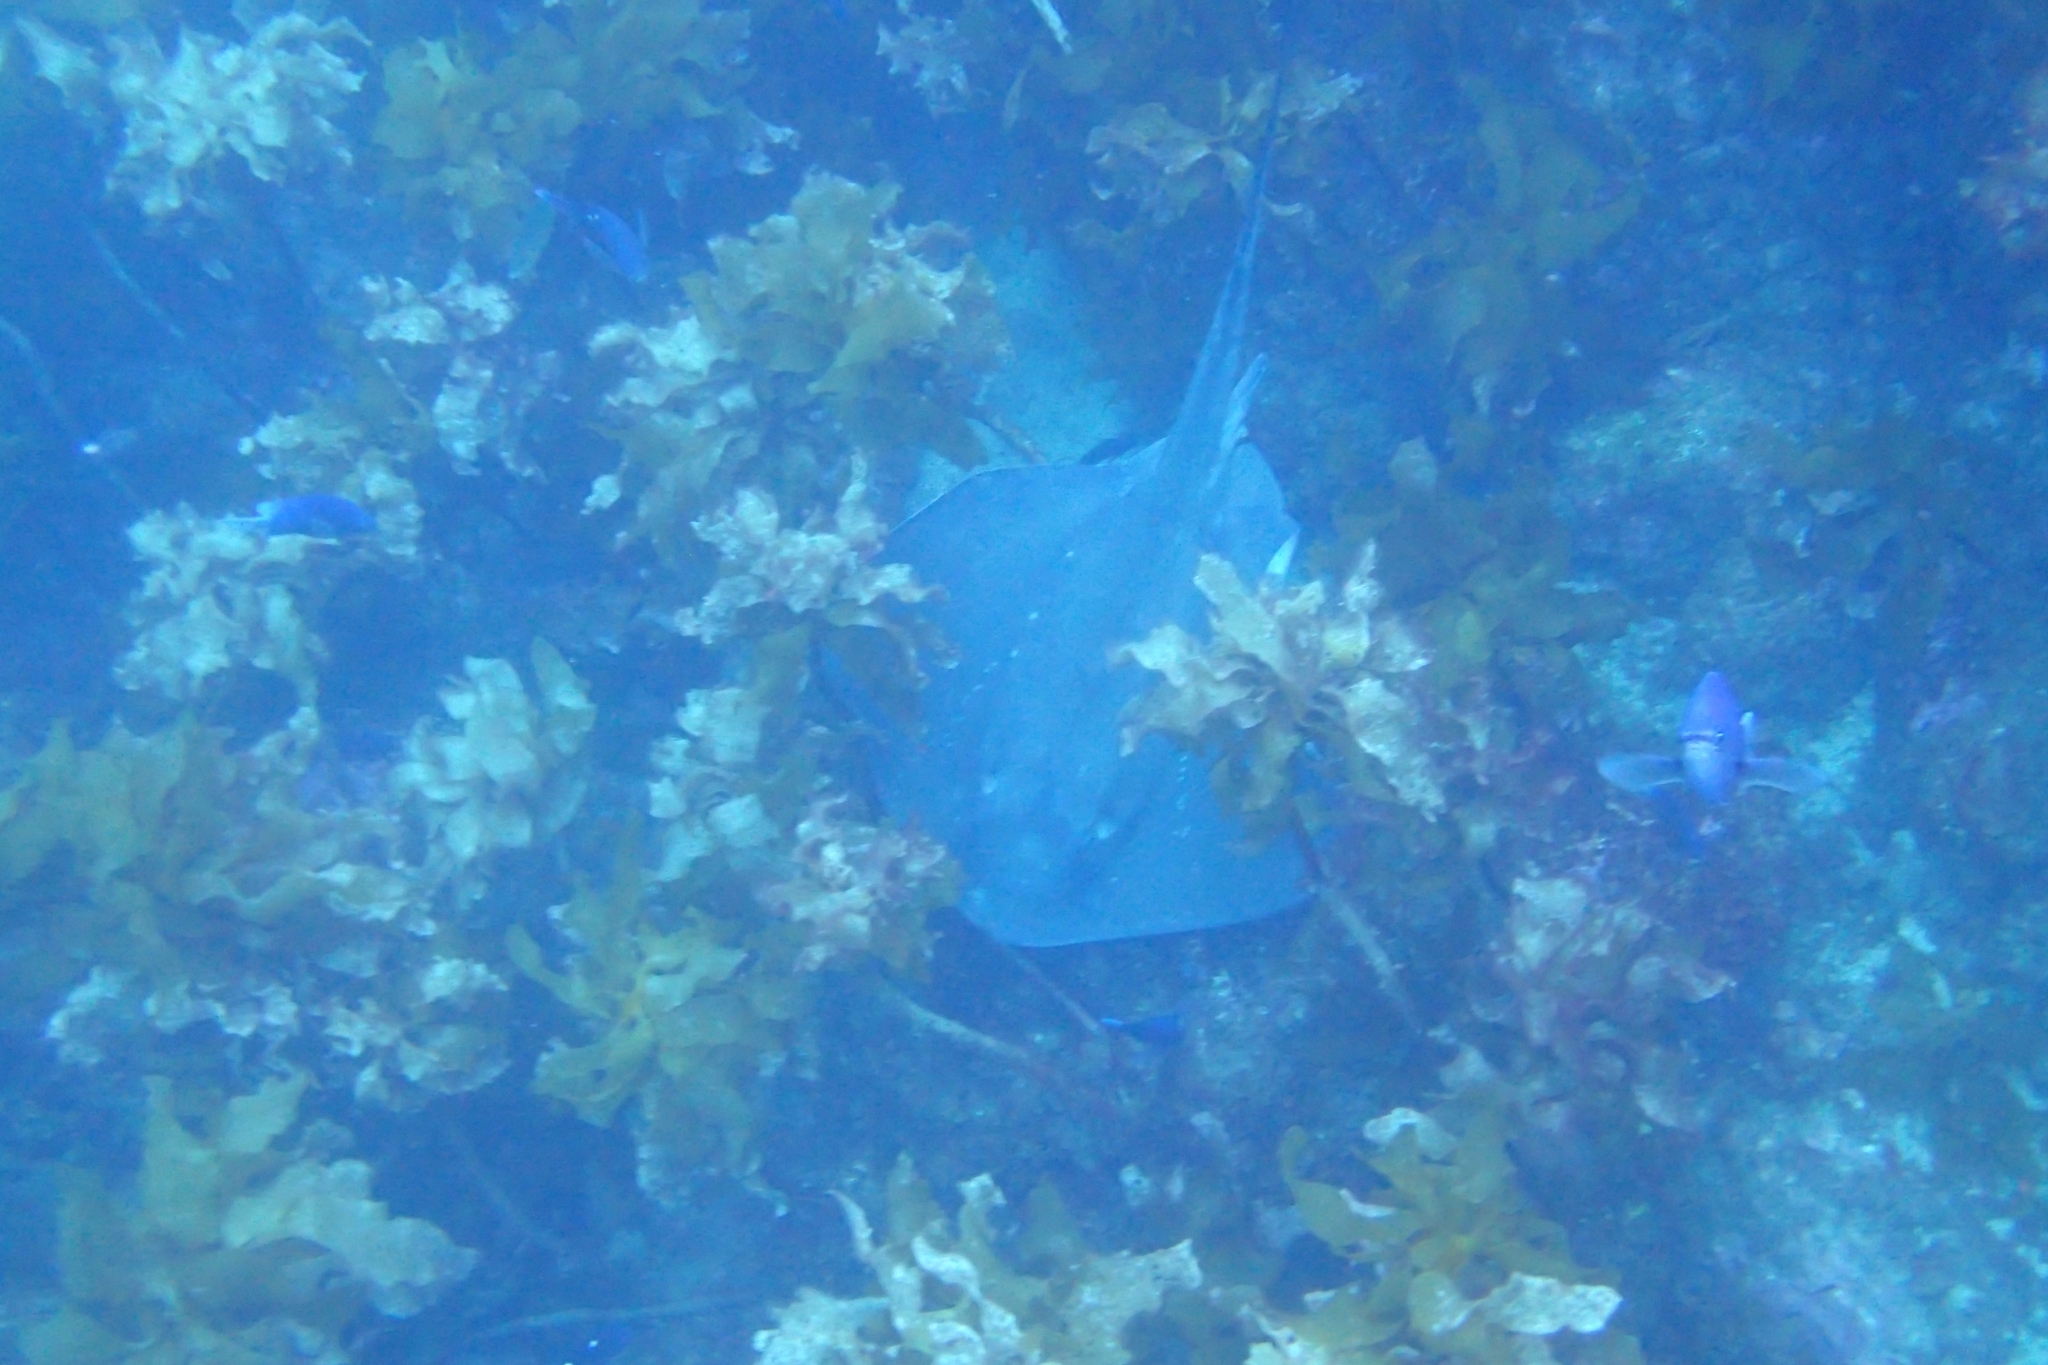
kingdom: Animalia
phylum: Chordata
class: Elasmobranchii
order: Myliobatiformes
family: Dasyatidae
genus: Bathytoshia
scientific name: Bathytoshia brevicaudata
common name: Short-tail stingray
